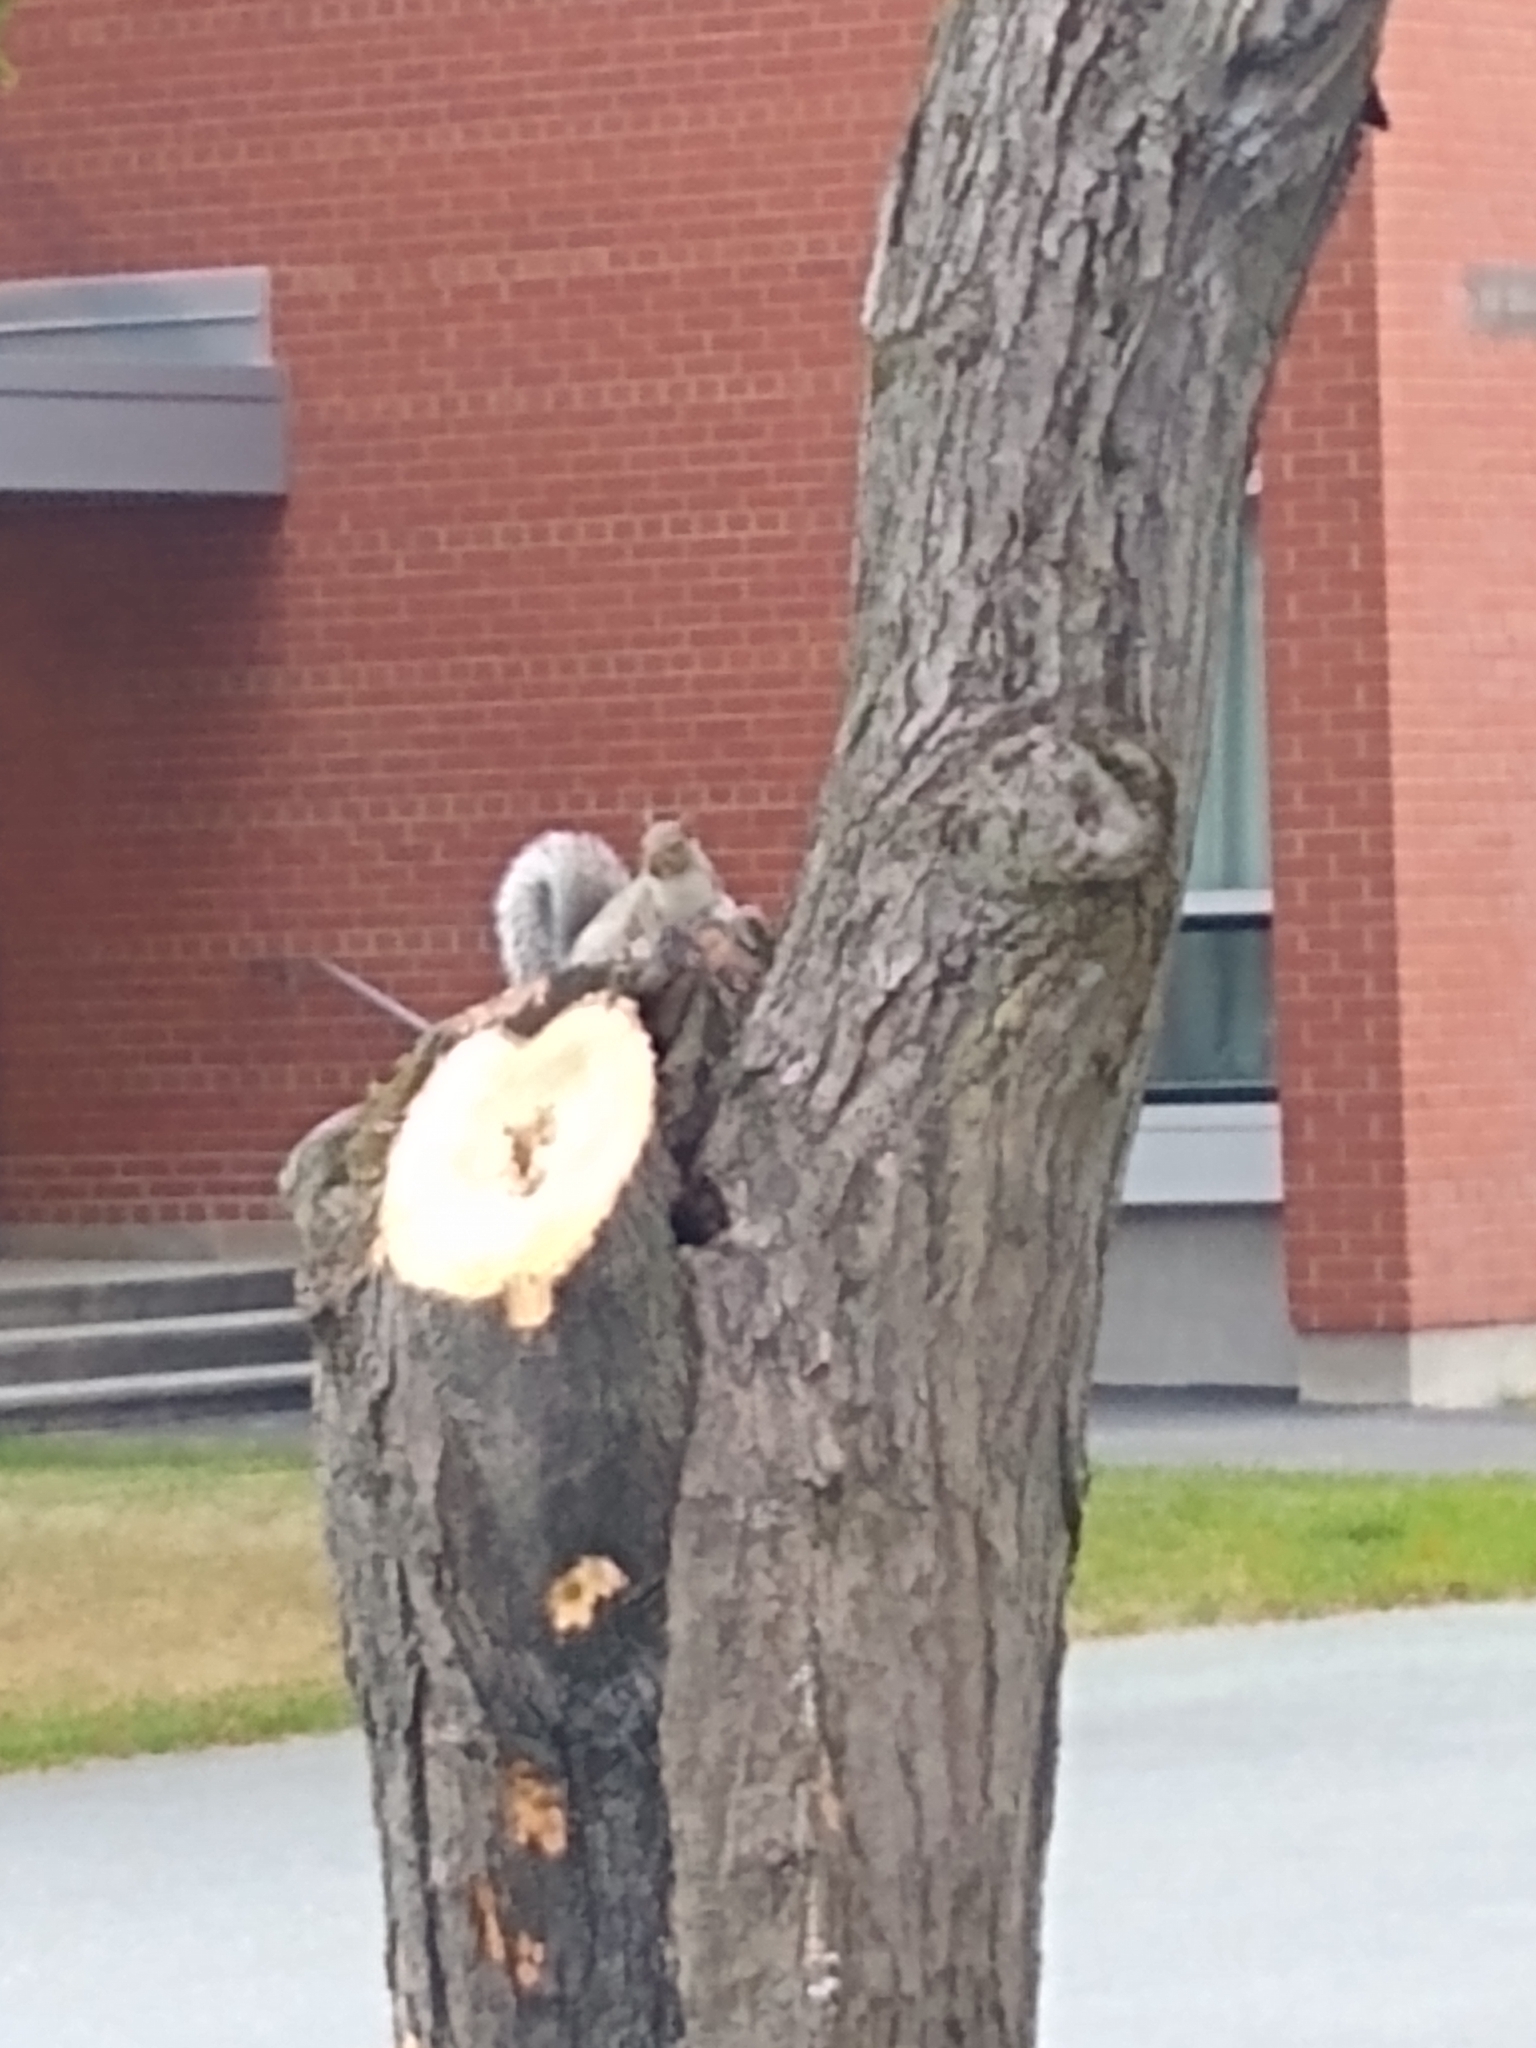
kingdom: Animalia
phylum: Chordata
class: Mammalia
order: Rodentia
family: Sciuridae
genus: Sciurus
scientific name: Sciurus carolinensis
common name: Eastern gray squirrel
